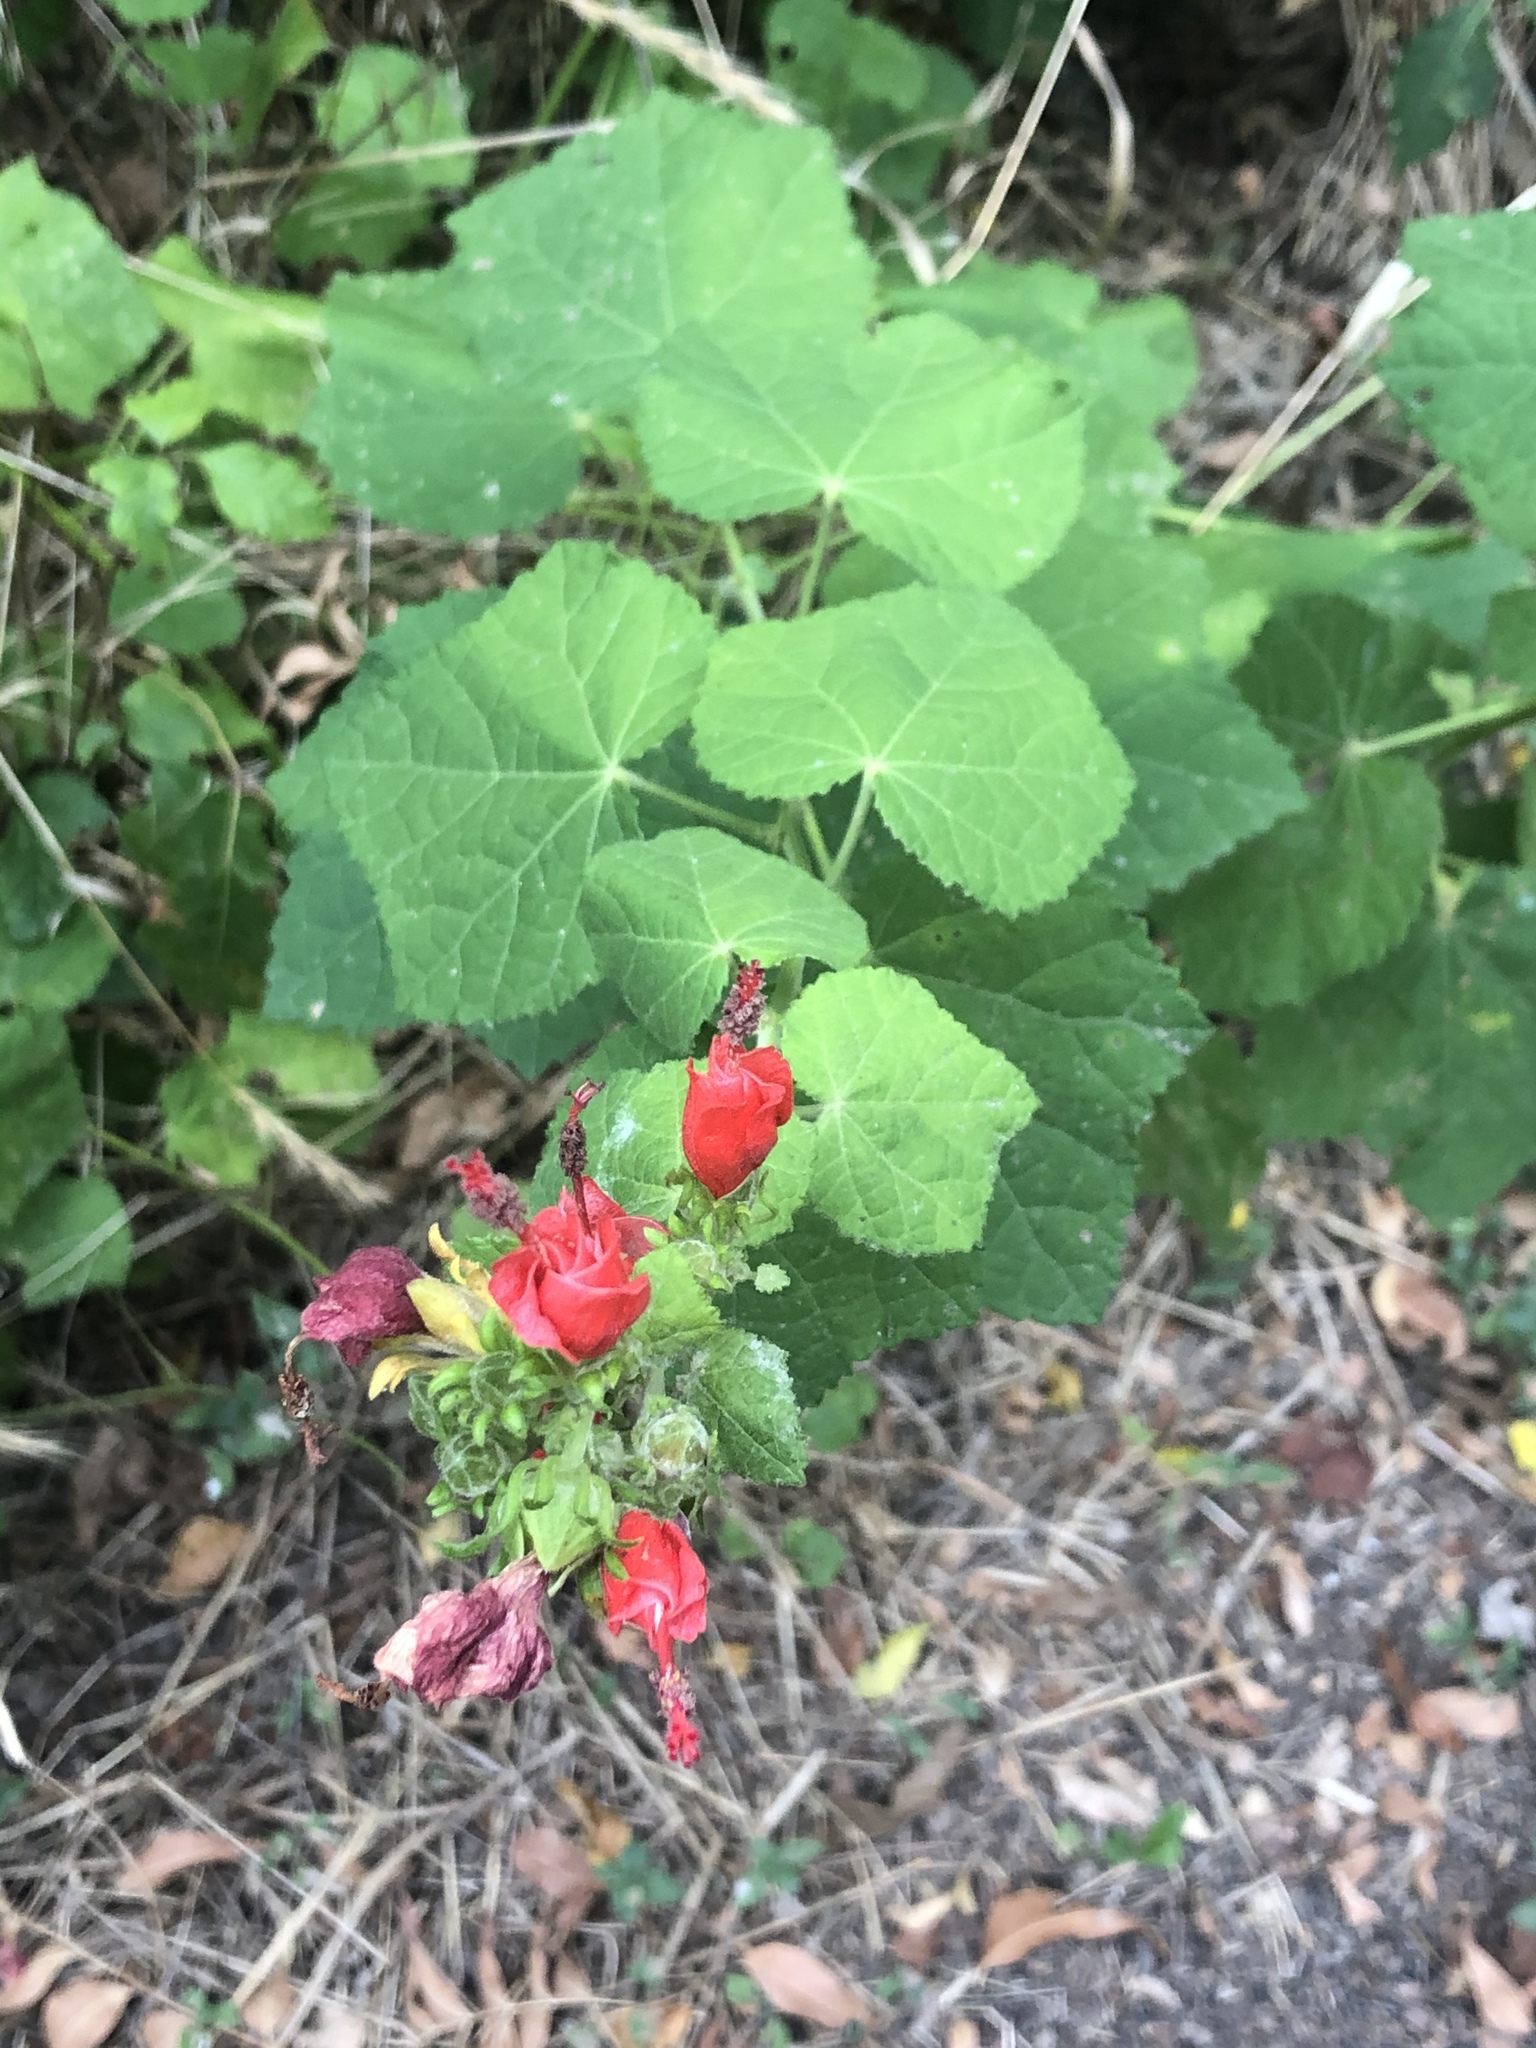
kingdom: Plantae
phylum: Tracheophyta
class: Magnoliopsida
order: Malvales
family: Malvaceae
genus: Malvaviscus
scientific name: Malvaviscus arboreus
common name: Wax mallow
